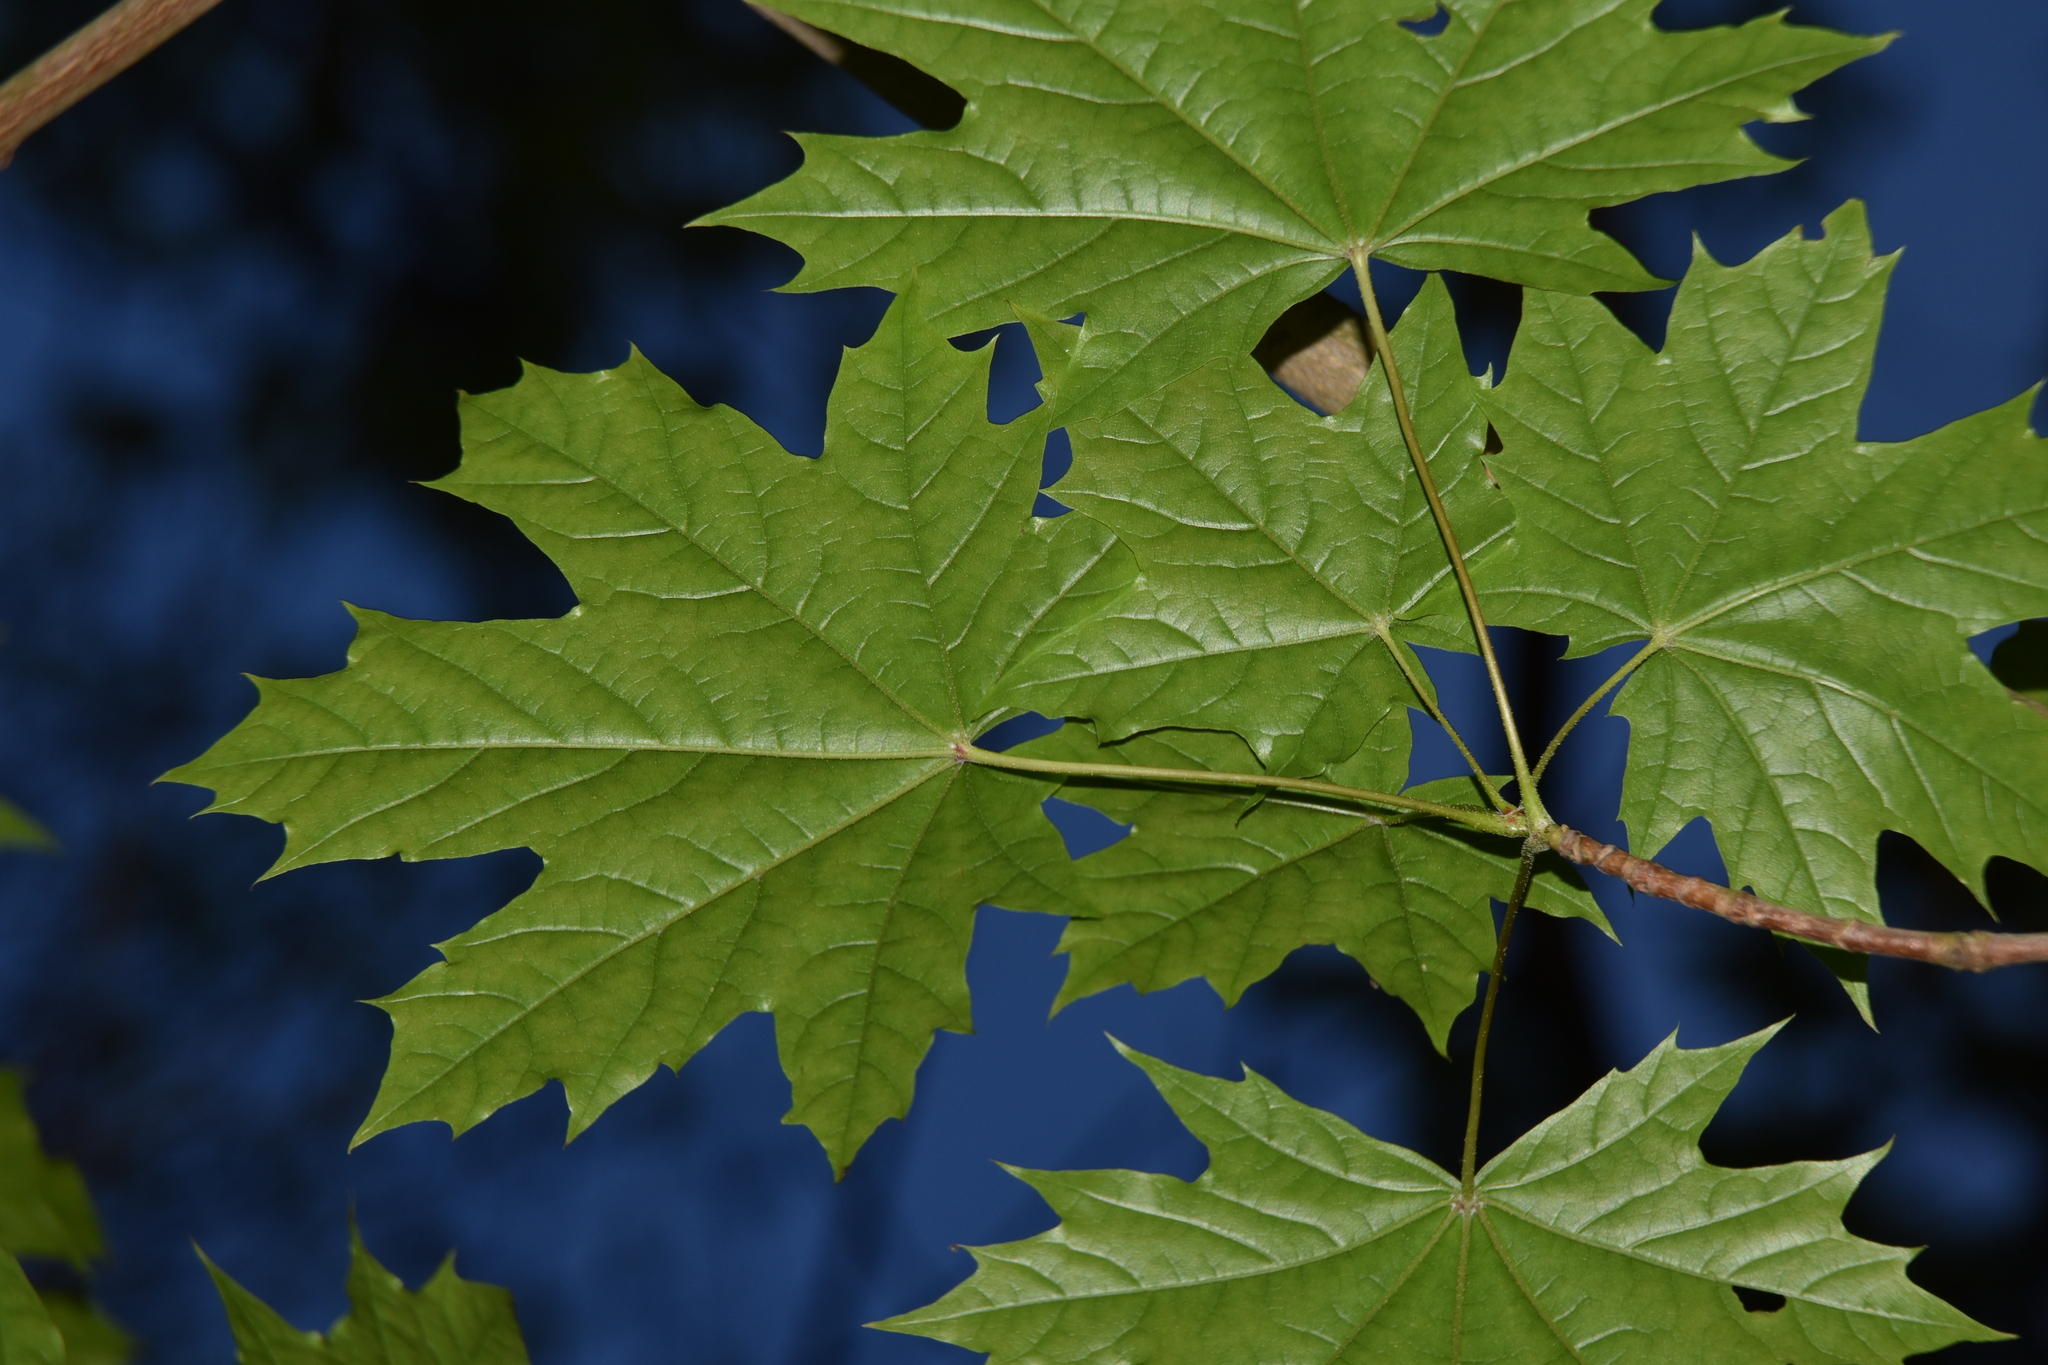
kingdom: Plantae
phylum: Tracheophyta
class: Magnoliopsida
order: Sapindales
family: Sapindaceae
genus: Acer
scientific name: Acer platanoides
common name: Norway maple
